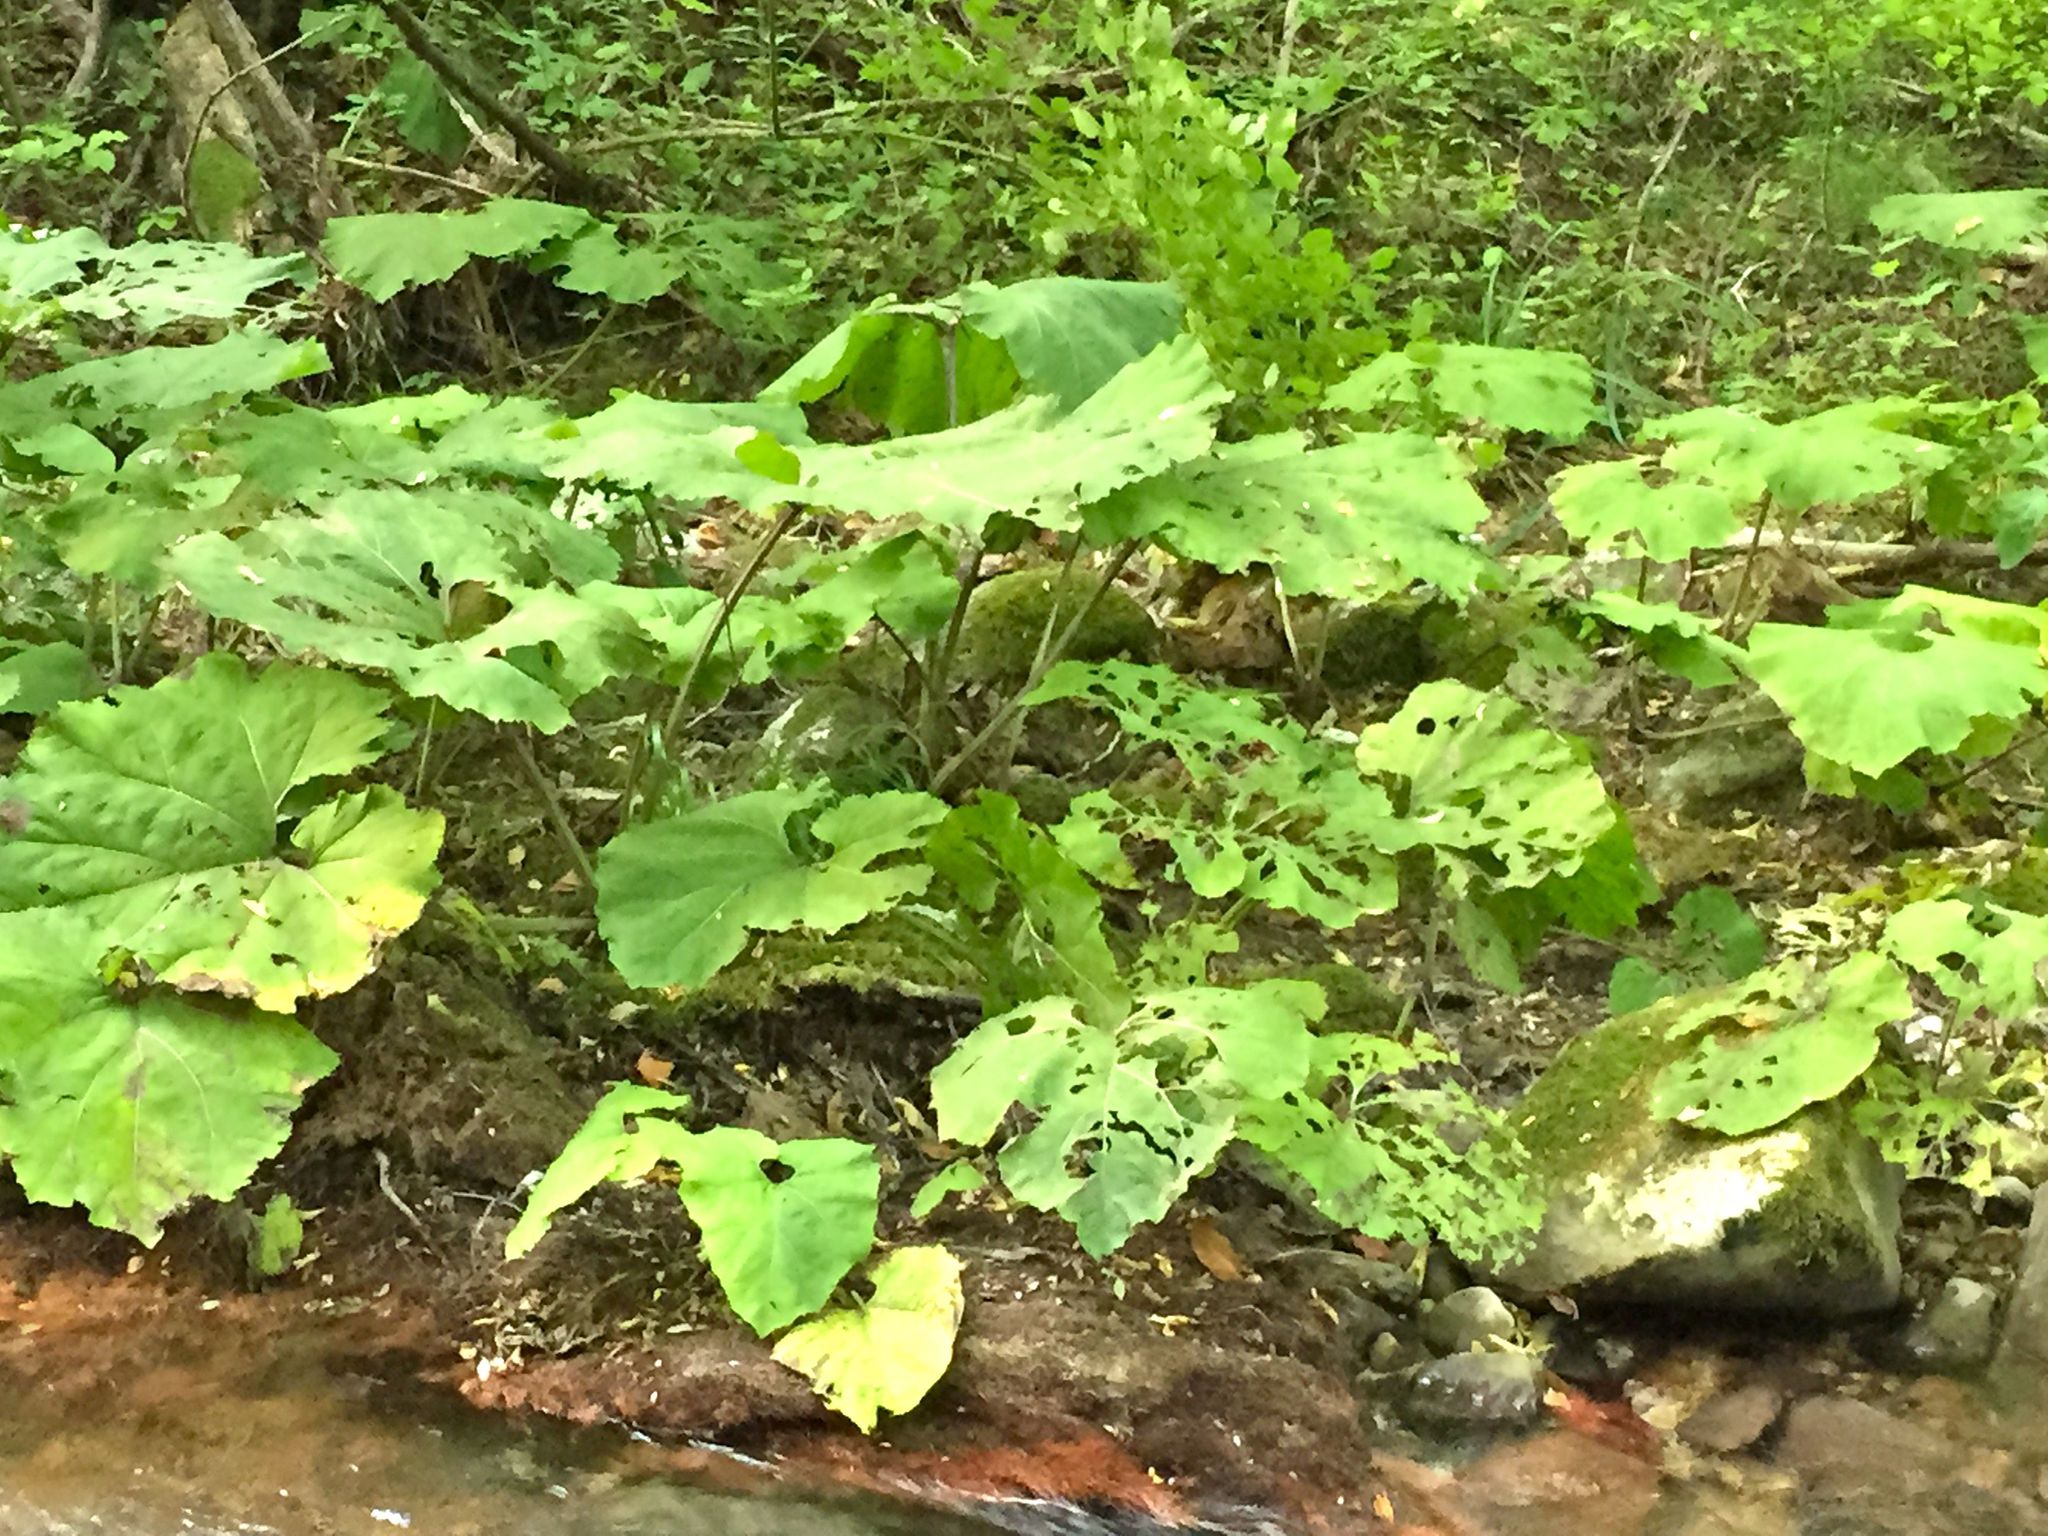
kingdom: Plantae
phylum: Tracheophyta
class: Magnoliopsida
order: Asterales
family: Asteraceae
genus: Petasites
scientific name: Petasites
